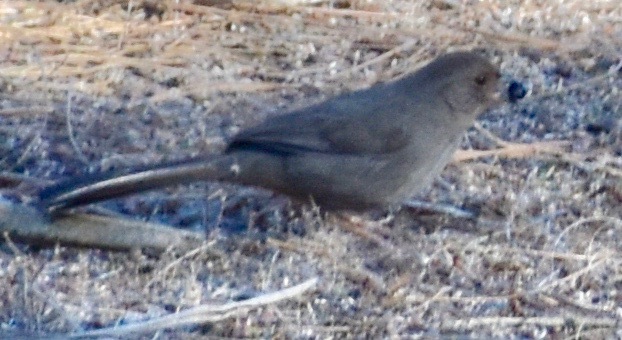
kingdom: Animalia
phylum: Chordata
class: Aves
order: Passeriformes
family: Passerellidae
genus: Melozone
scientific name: Melozone crissalis
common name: California towhee
